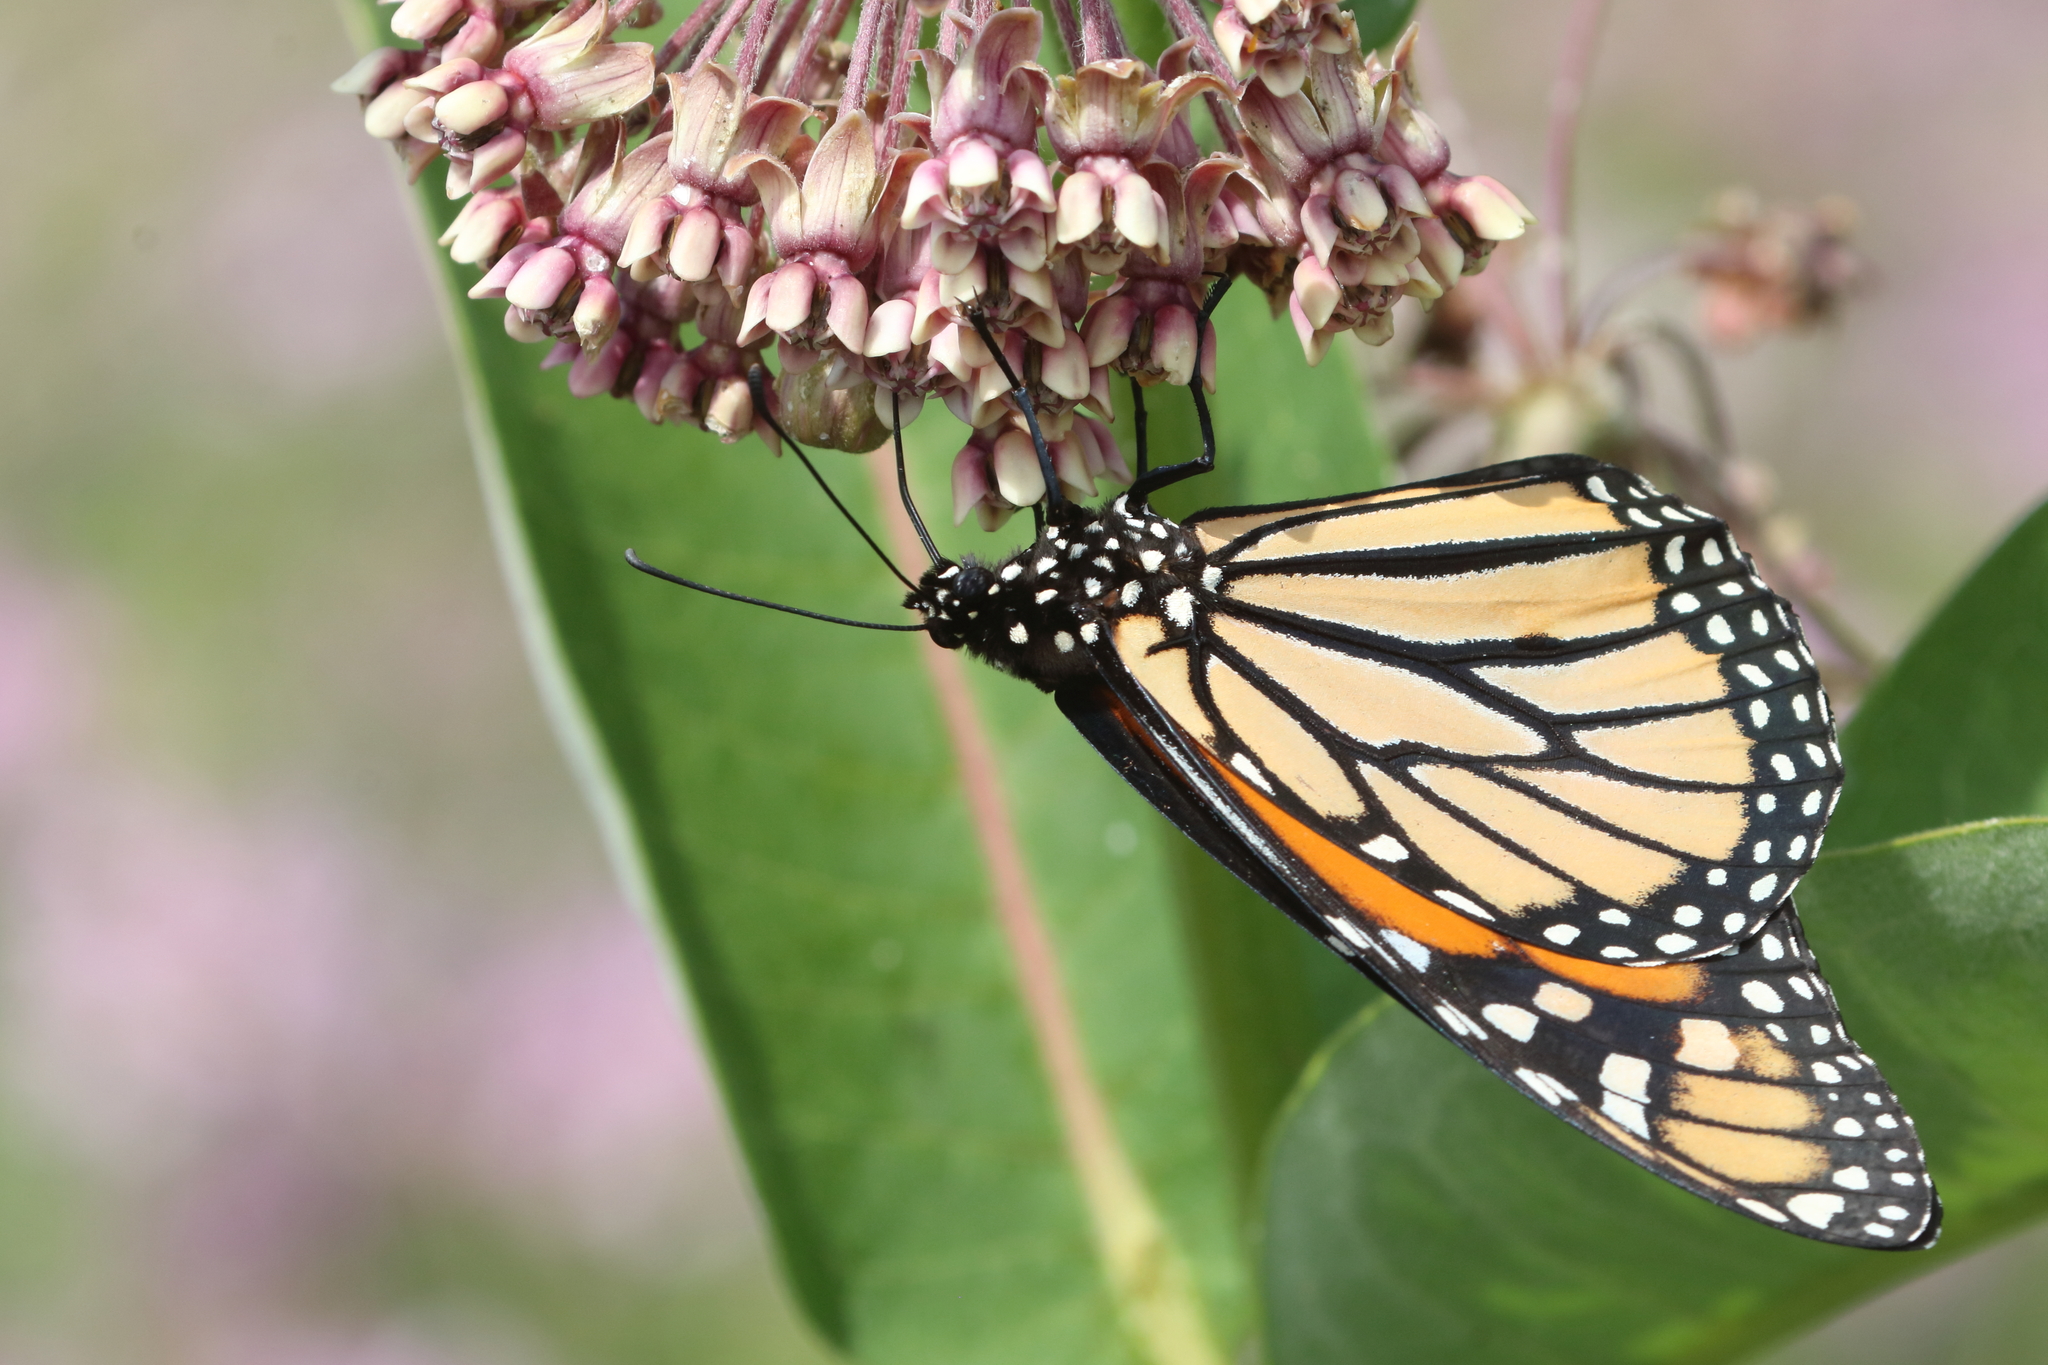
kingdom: Animalia
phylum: Arthropoda
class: Insecta
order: Lepidoptera
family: Nymphalidae
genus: Danaus
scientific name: Danaus plexippus
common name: Monarch
